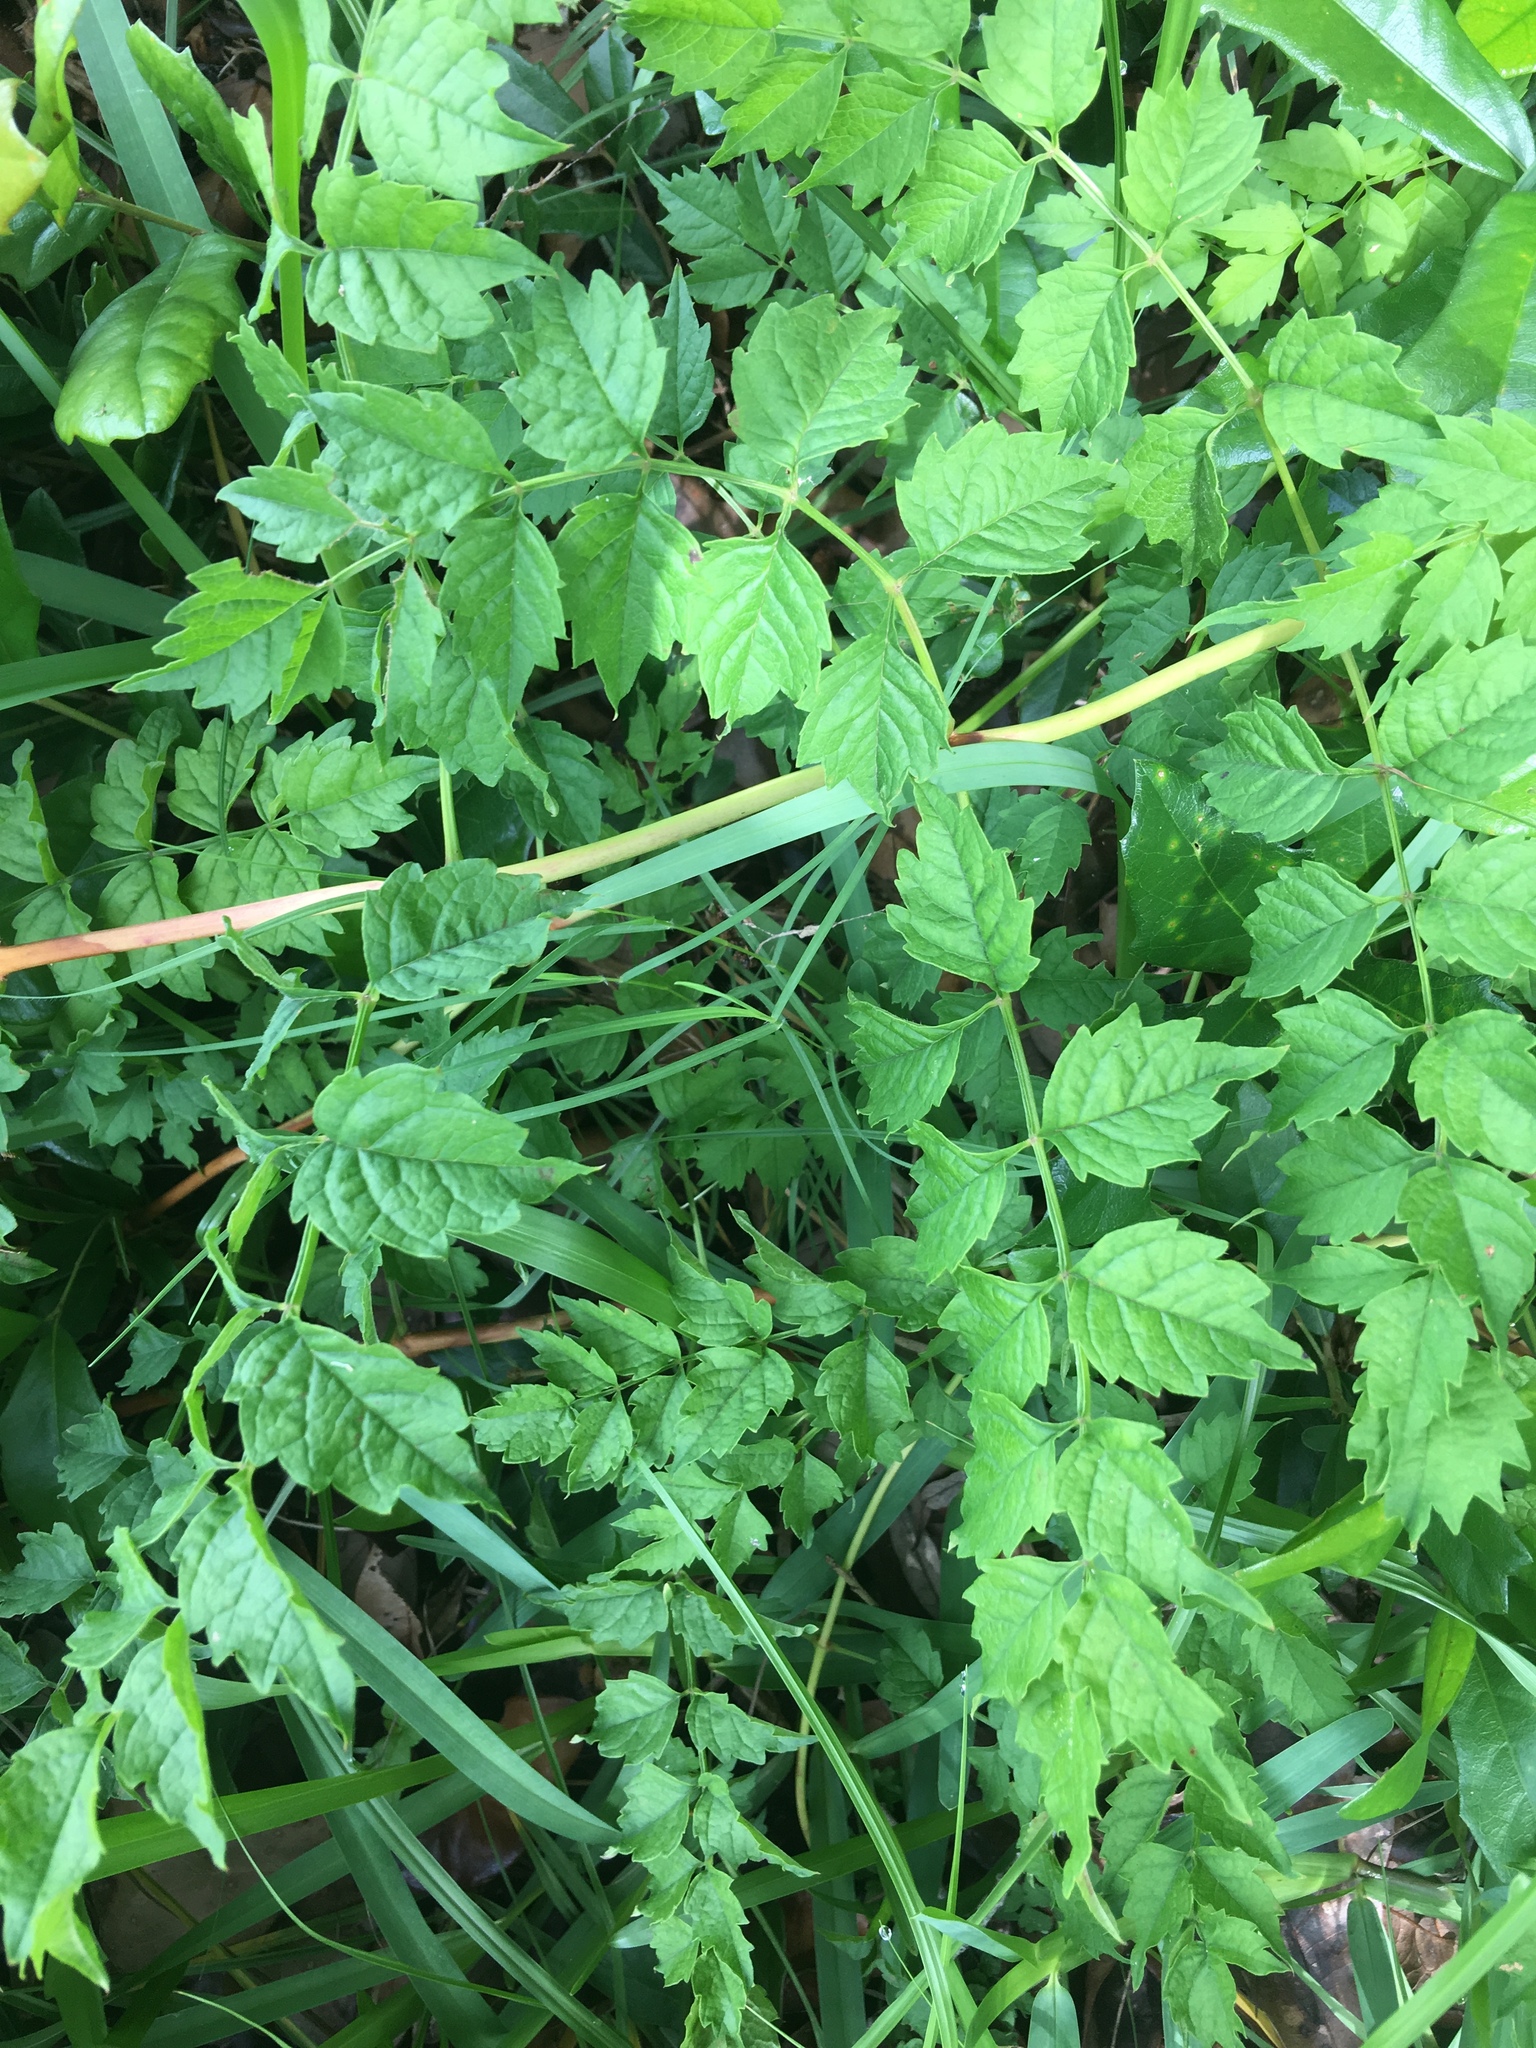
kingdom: Plantae
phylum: Tracheophyta
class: Magnoliopsida
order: Lamiales
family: Bignoniaceae
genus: Campsis
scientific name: Campsis radicans
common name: Trumpet-creeper
